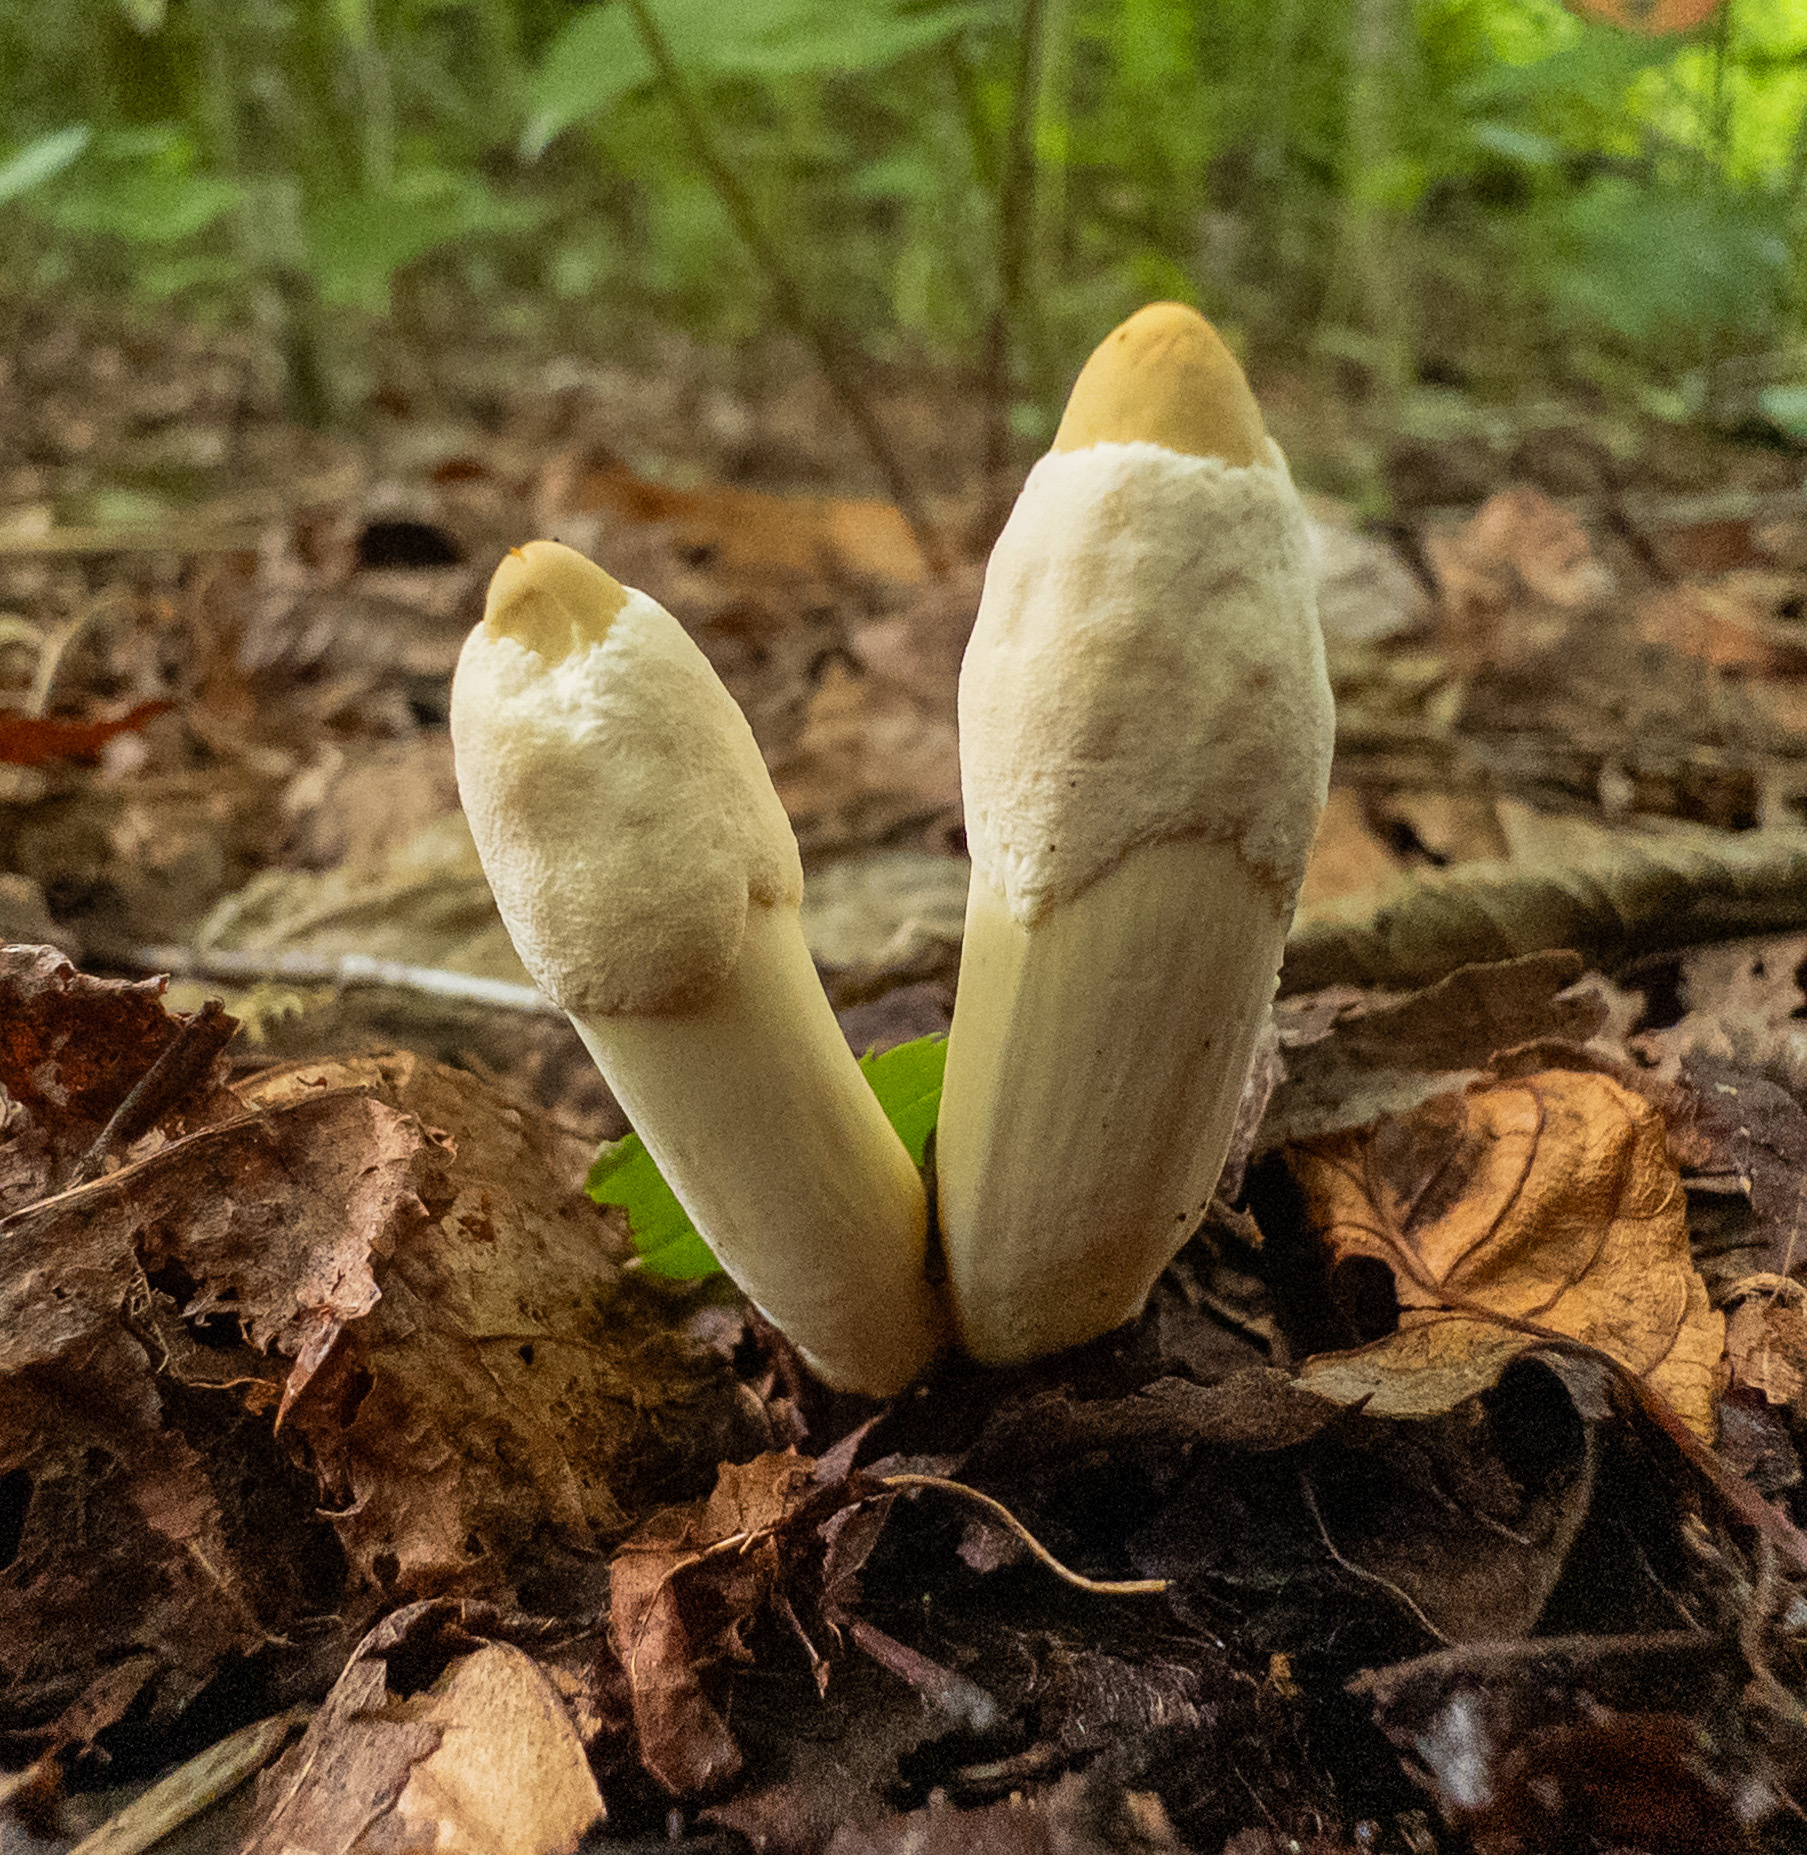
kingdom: Fungi
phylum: Ascomycota
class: Sordariomycetes
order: Hypocreales
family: Ophiocordycipitaceae
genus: Ophiocordyceps
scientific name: Ophiocordyceps melolonthae
